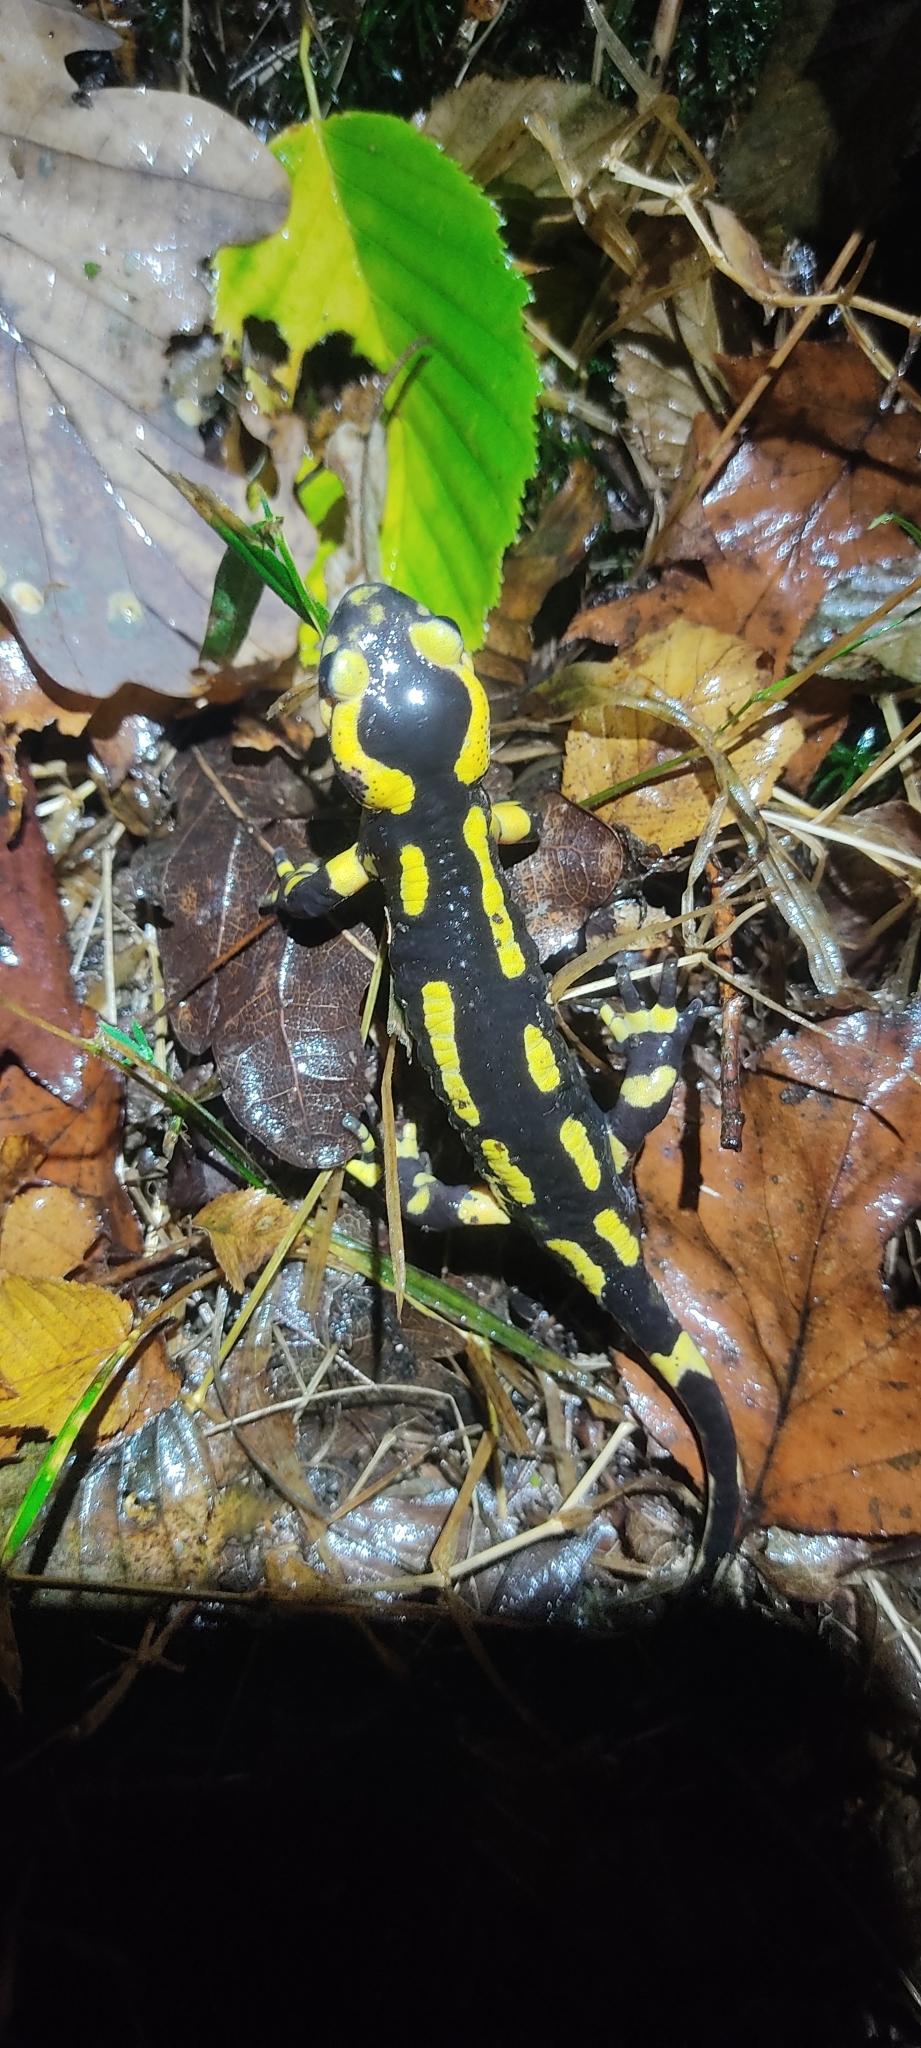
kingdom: Animalia
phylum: Chordata
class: Amphibia
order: Caudata
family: Salamandridae
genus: Salamandra
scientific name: Salamandra salamandra
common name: Fire salamander
